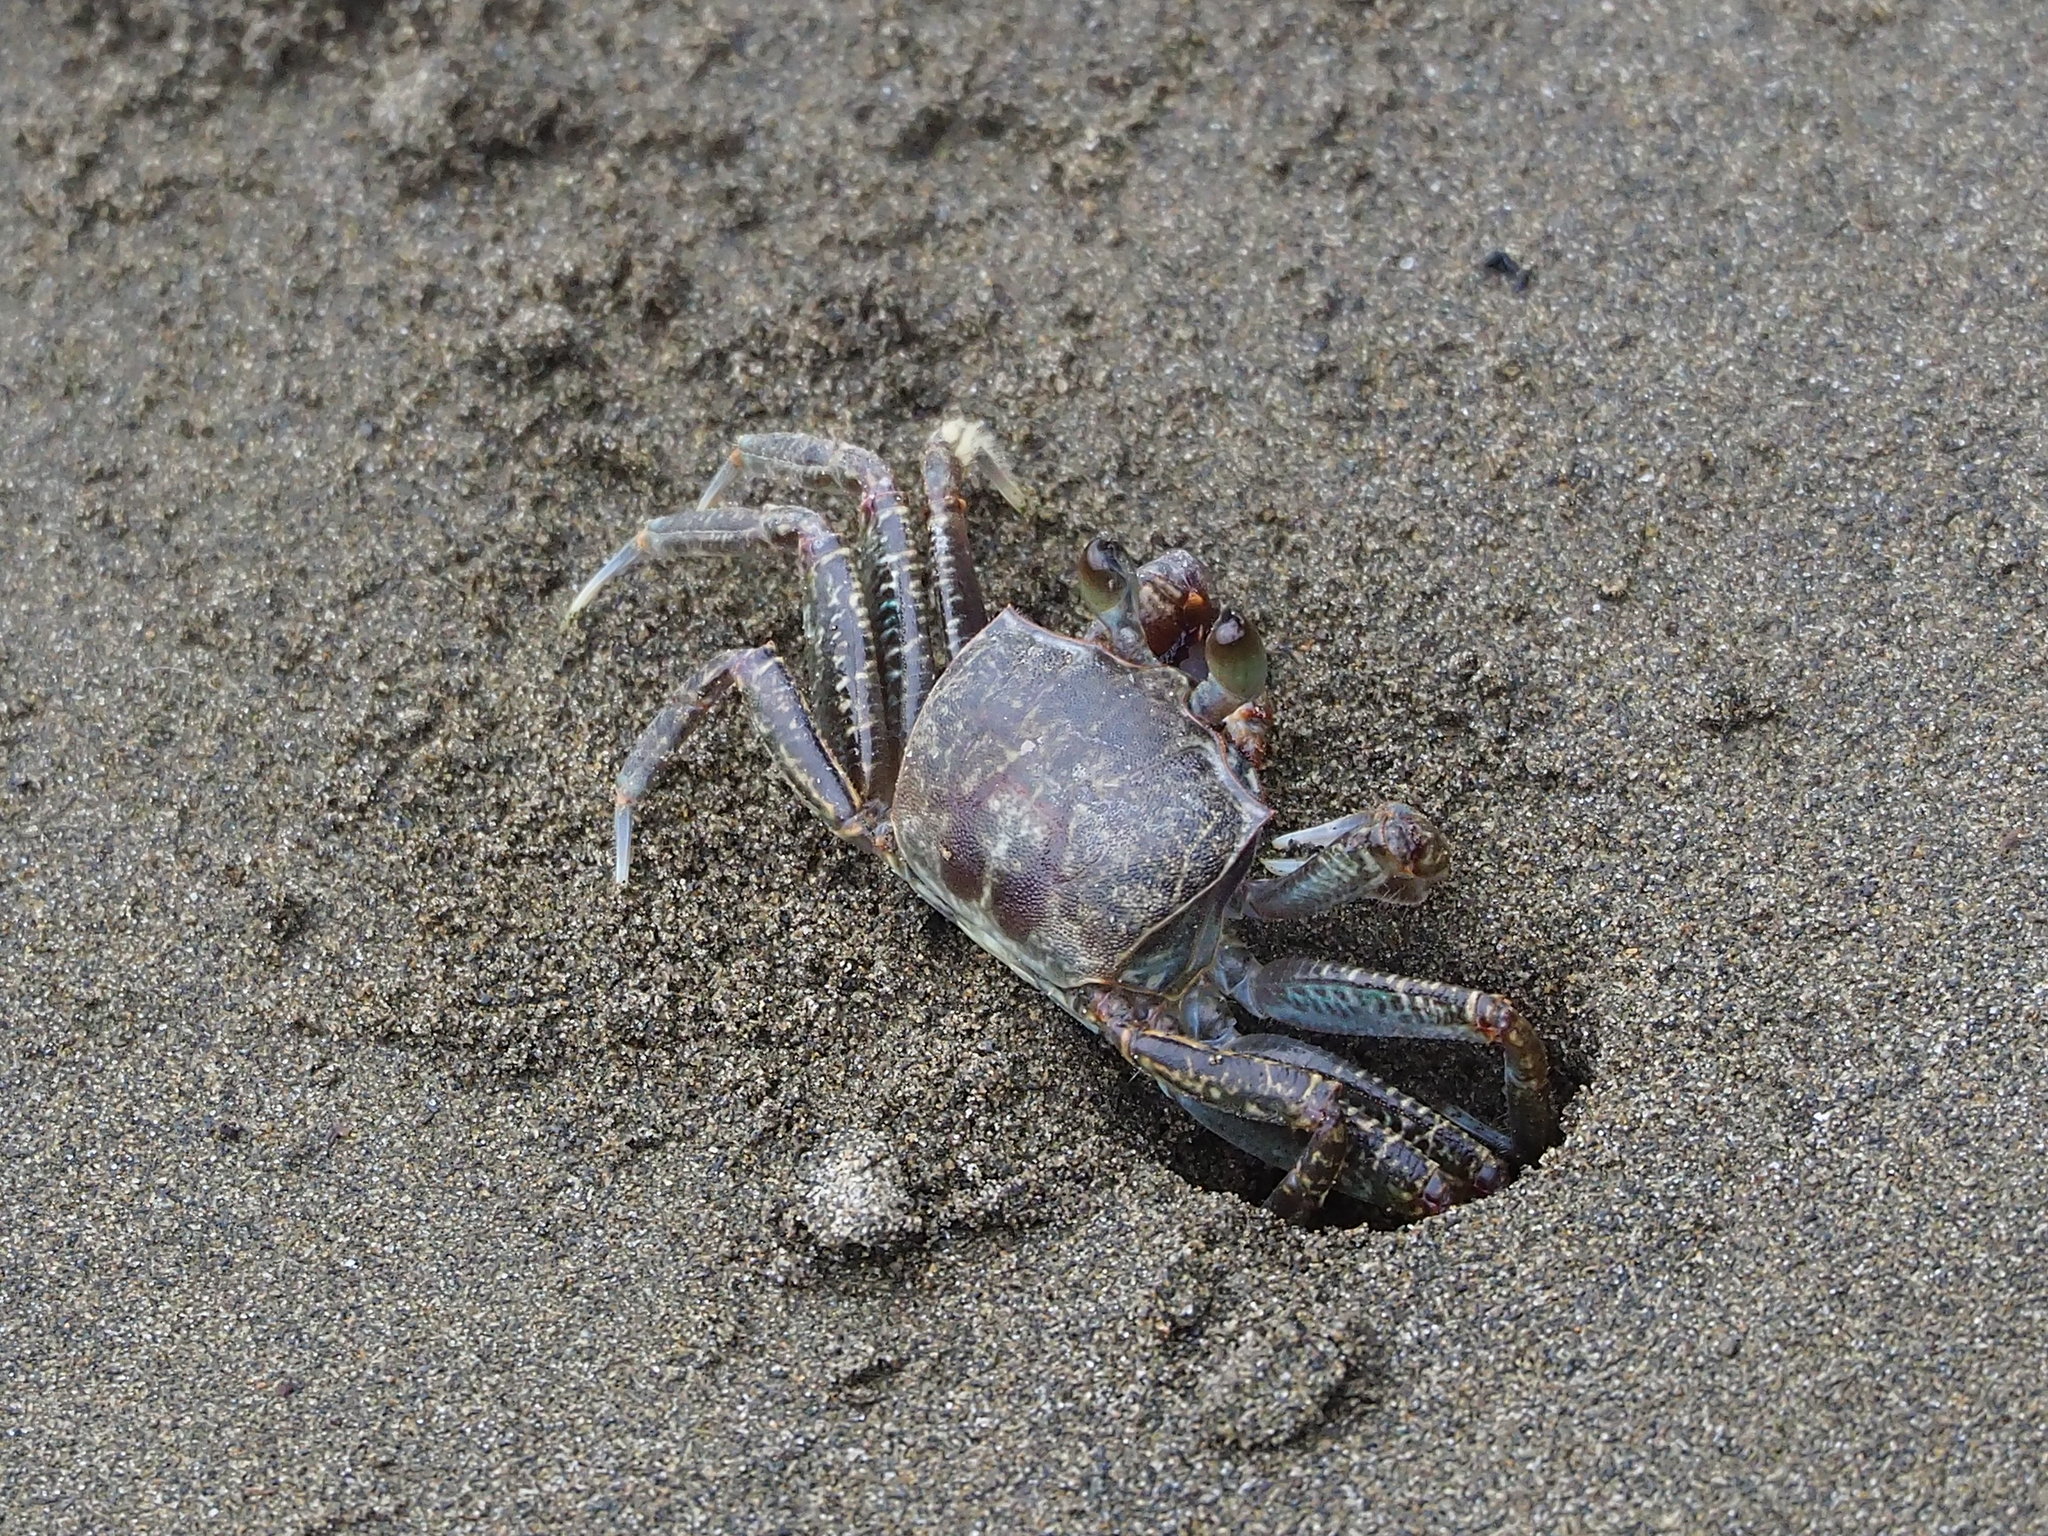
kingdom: Animalia
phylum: Arthropoda
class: Malacostraca
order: Decapoda
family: Ocypodidae
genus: Ocypode
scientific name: Ocypode ceratophthalmus
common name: Indo-pacific ghost crab
